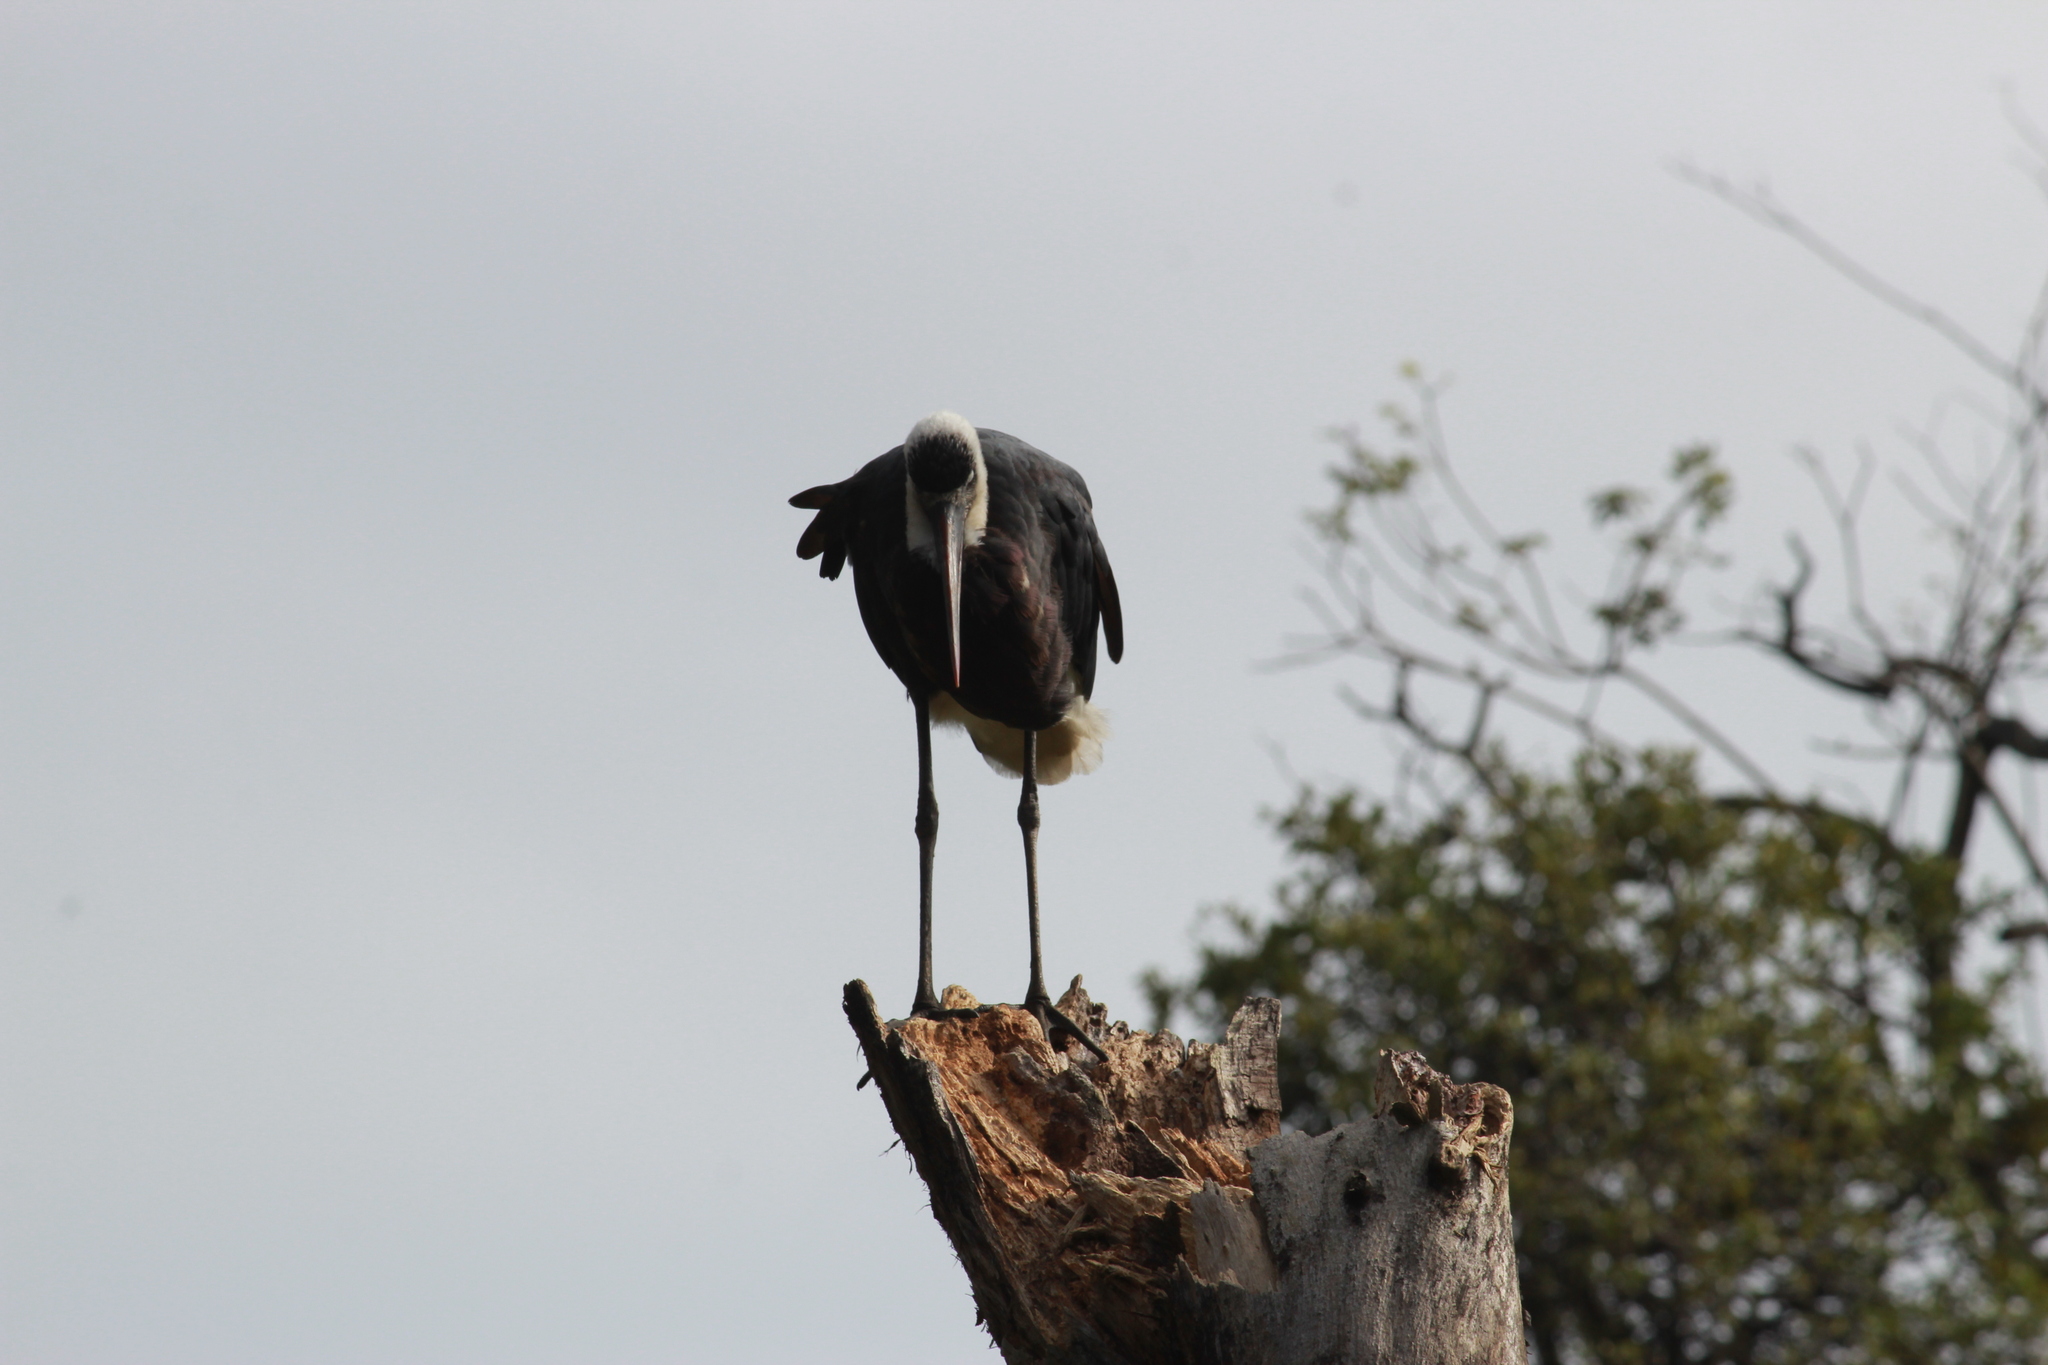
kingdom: Animalia
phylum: Chordata
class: Aves
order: Ciconiiformes
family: Ciconiidae
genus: Ciconia
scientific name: Ciconia microscelis
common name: African woollyneck
